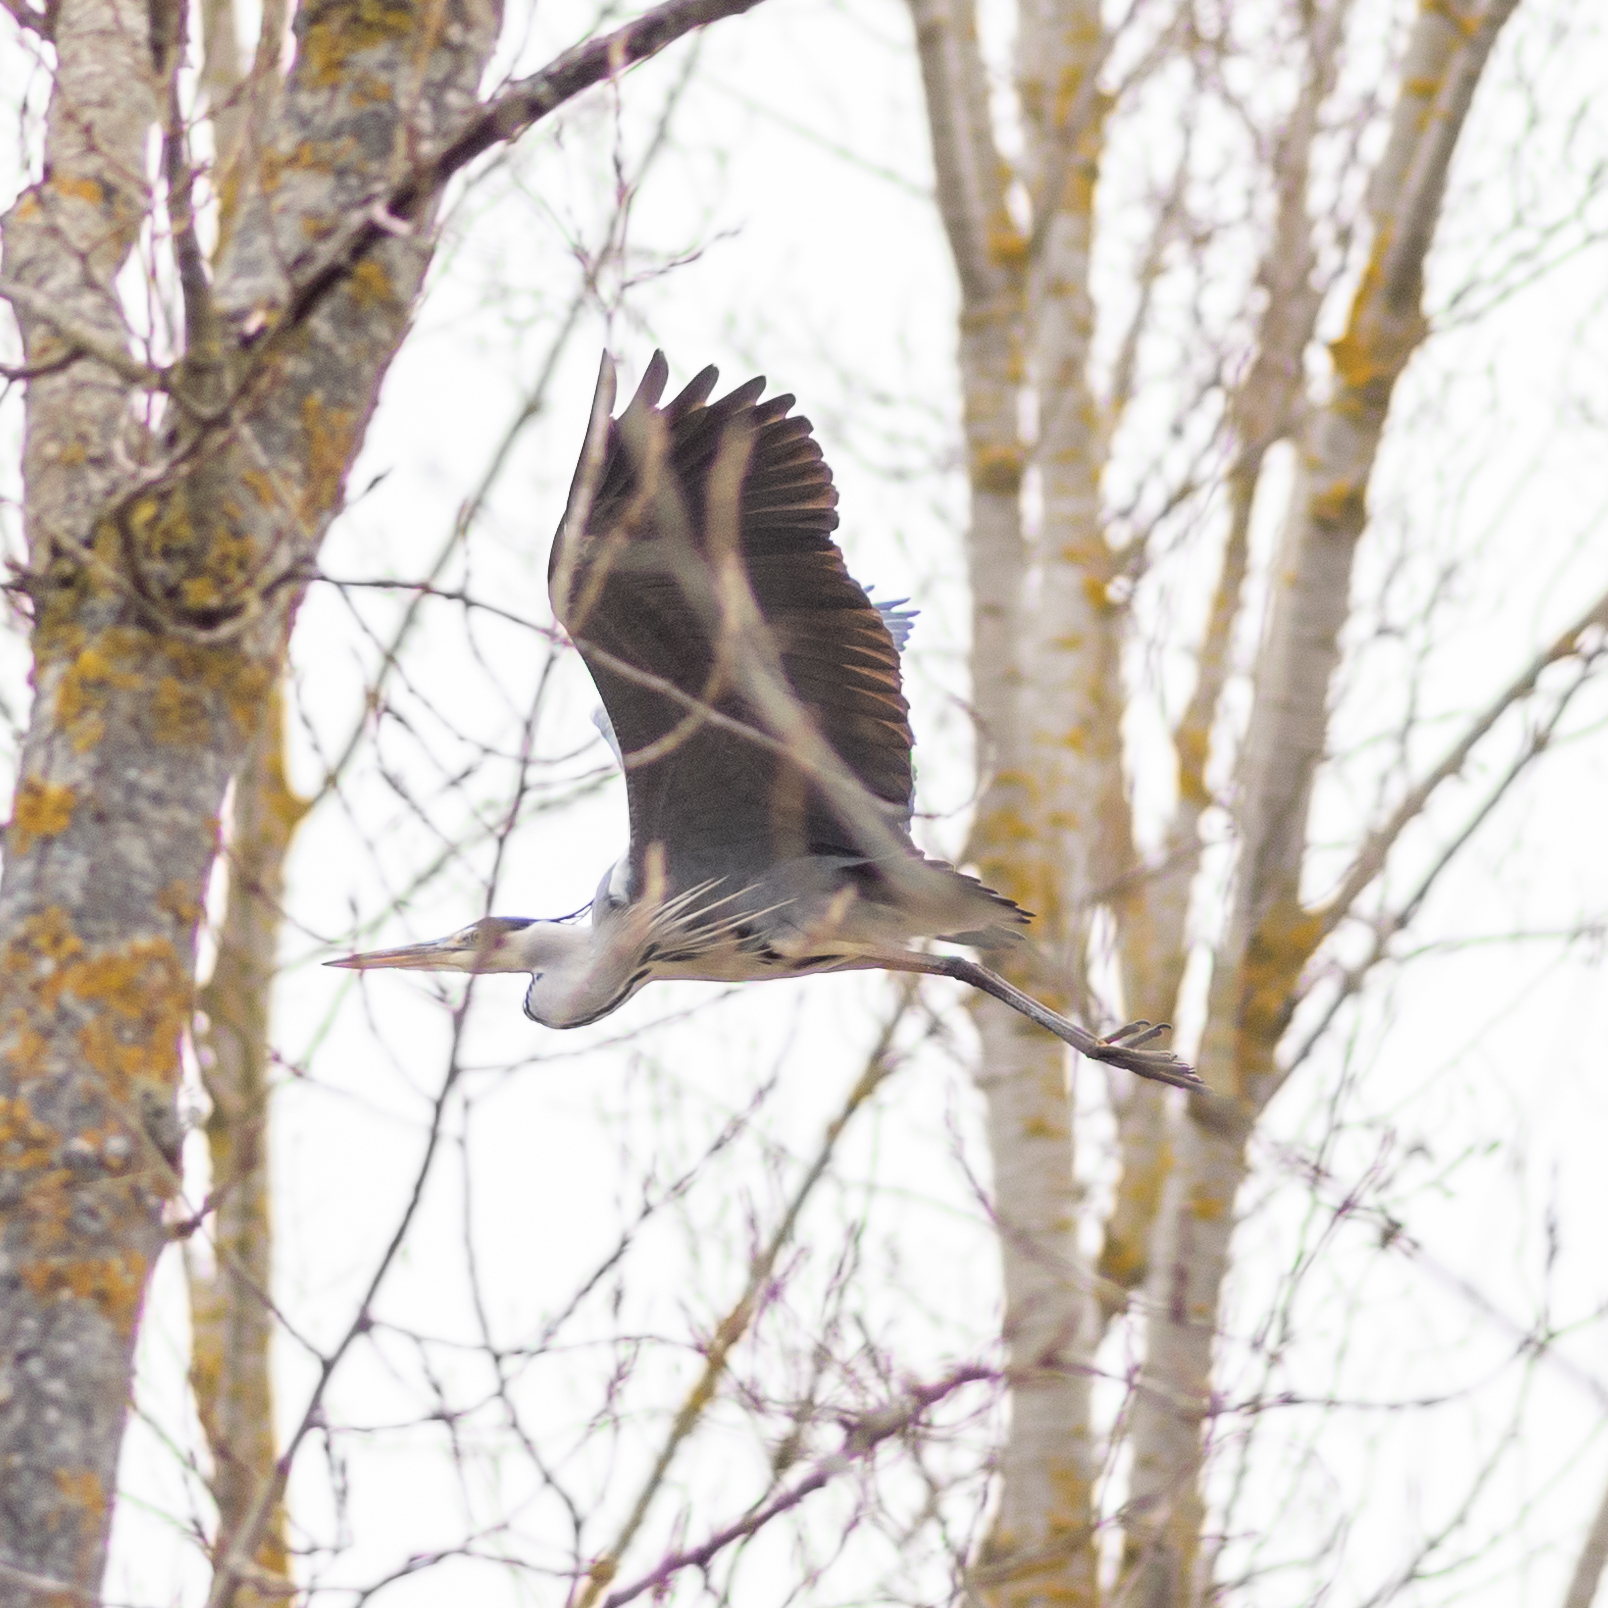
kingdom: Animalia
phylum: Chordata
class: Aves
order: Pelecaniformes
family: Ardeidae
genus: Ardea
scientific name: Ardea cinerea
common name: Grey heron
